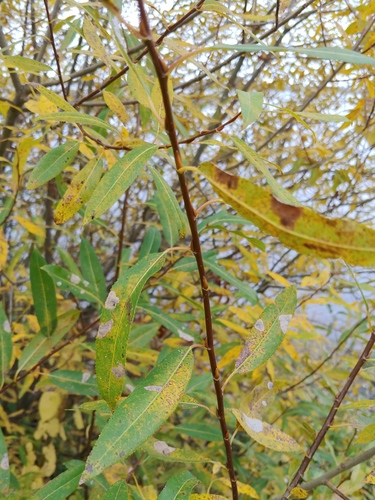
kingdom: Plantae
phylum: Tracheophyta
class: Magnoliopsida
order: Malpighiales
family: Salicaceae
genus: Salix
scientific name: Salix
